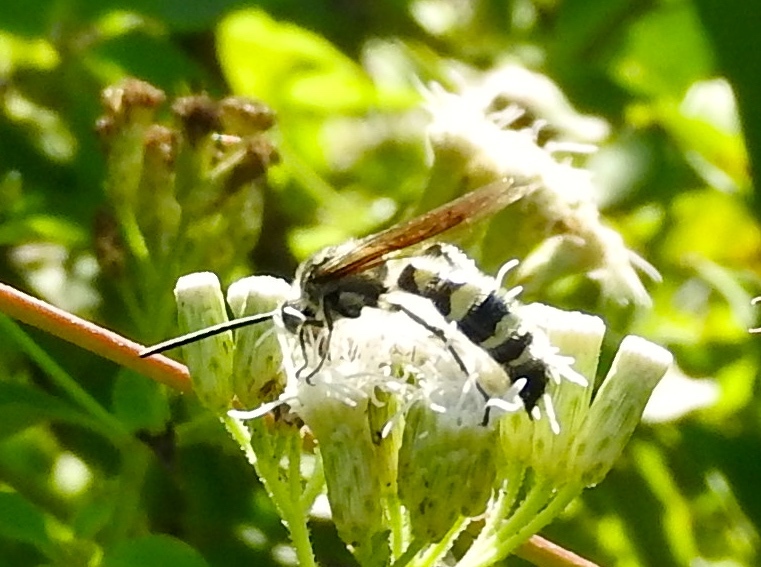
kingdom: Animalia
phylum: Arthropoda
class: Insecta
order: Hymenoptera
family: Scoliidae
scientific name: Scoliidae
